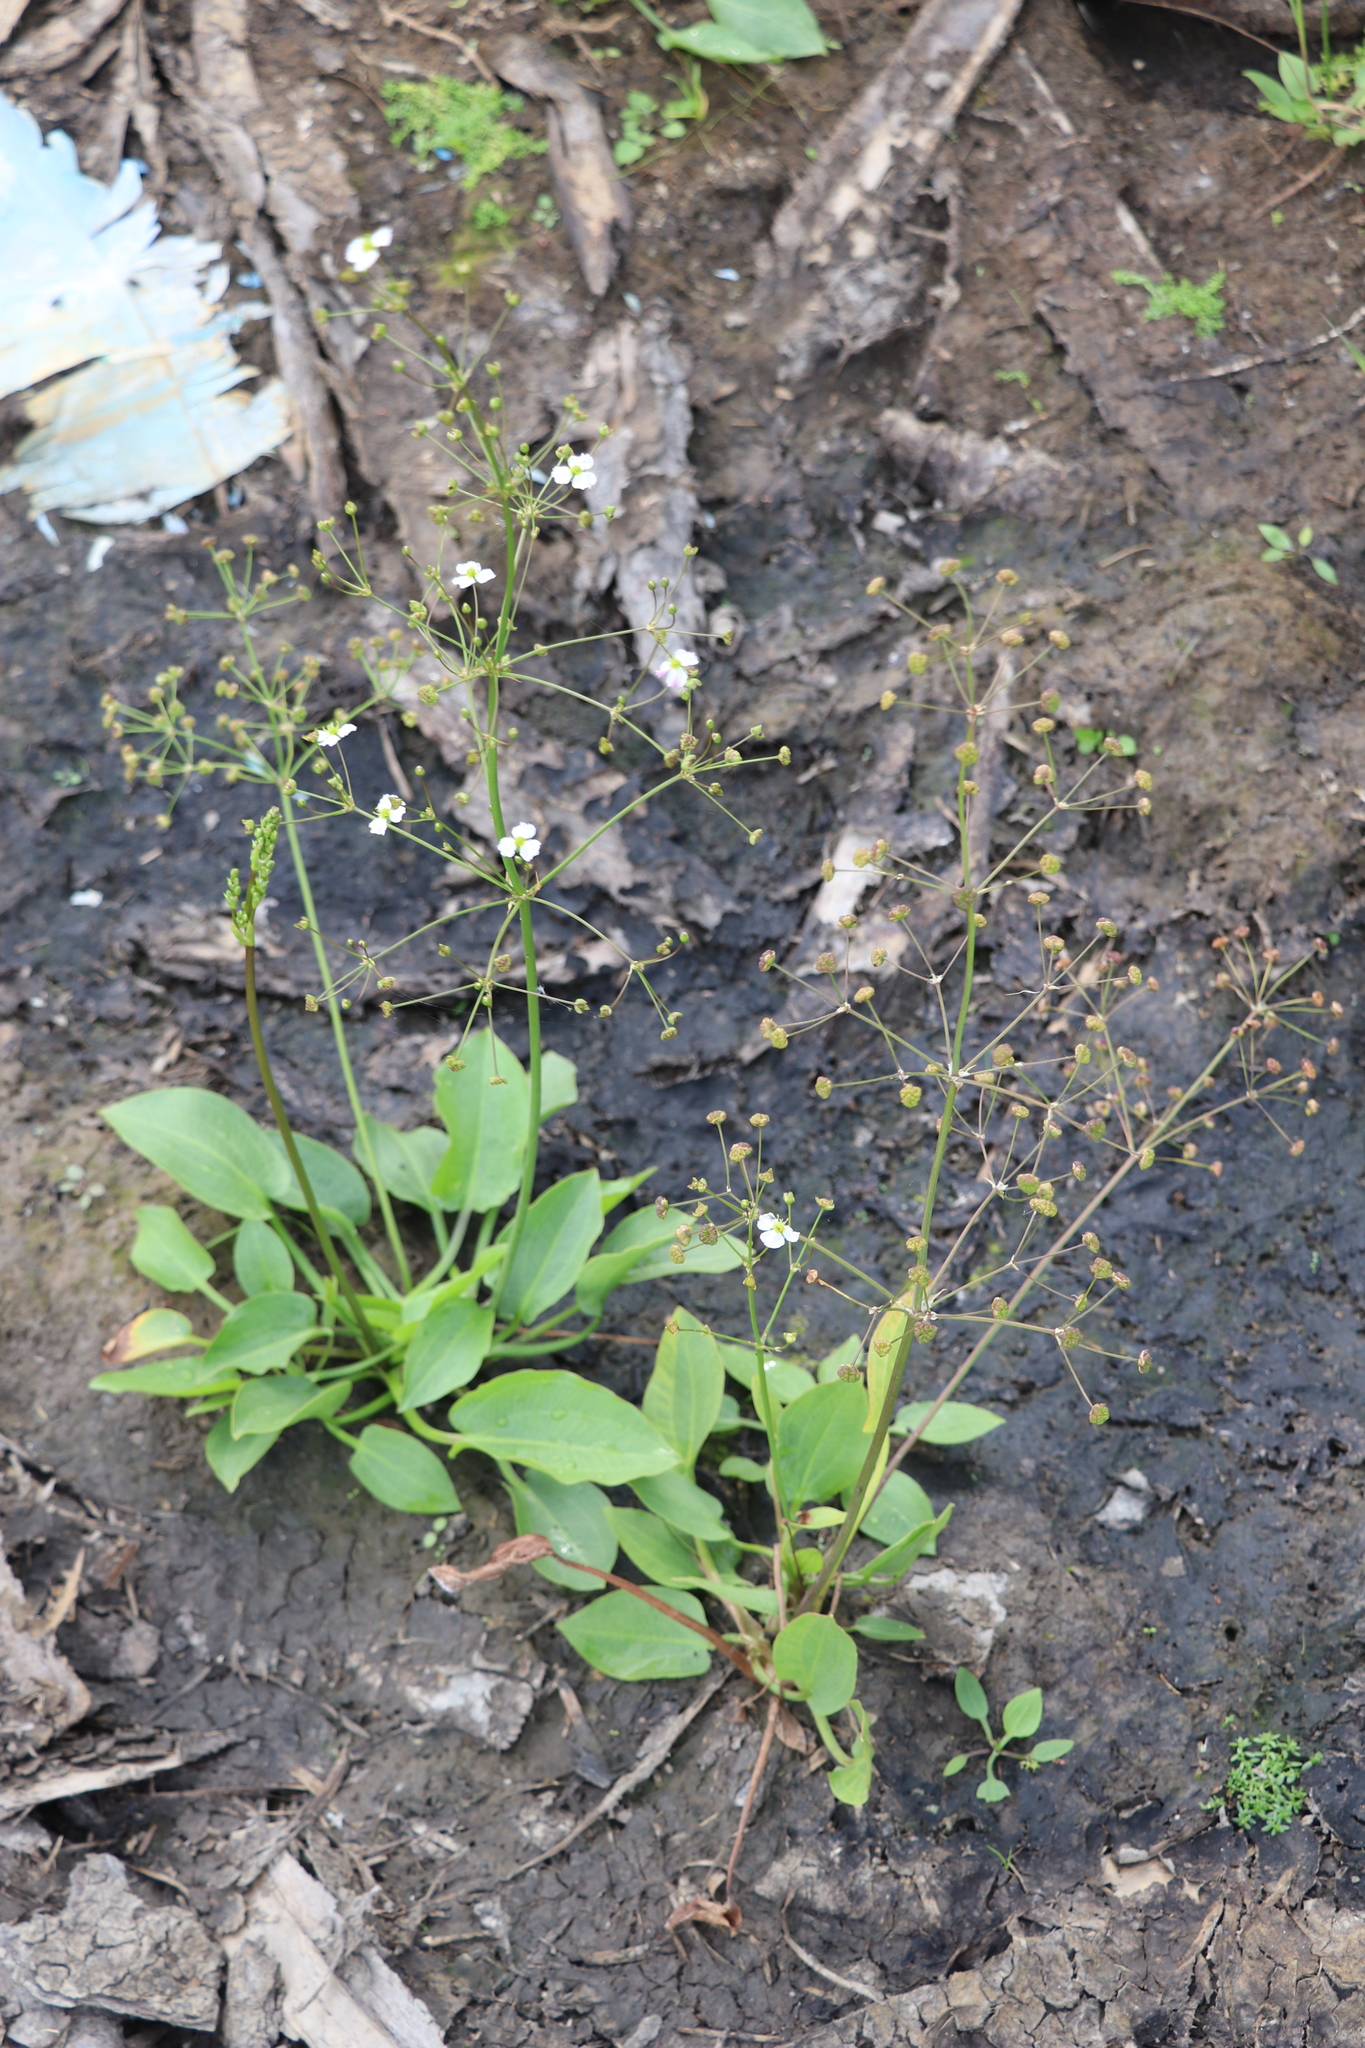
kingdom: Plantae
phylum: Tracheophyta
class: Liliopsida
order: Alismatales
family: Alismataceae
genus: Alisma
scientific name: Alisma plantago-aquatica
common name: Water-plantain
